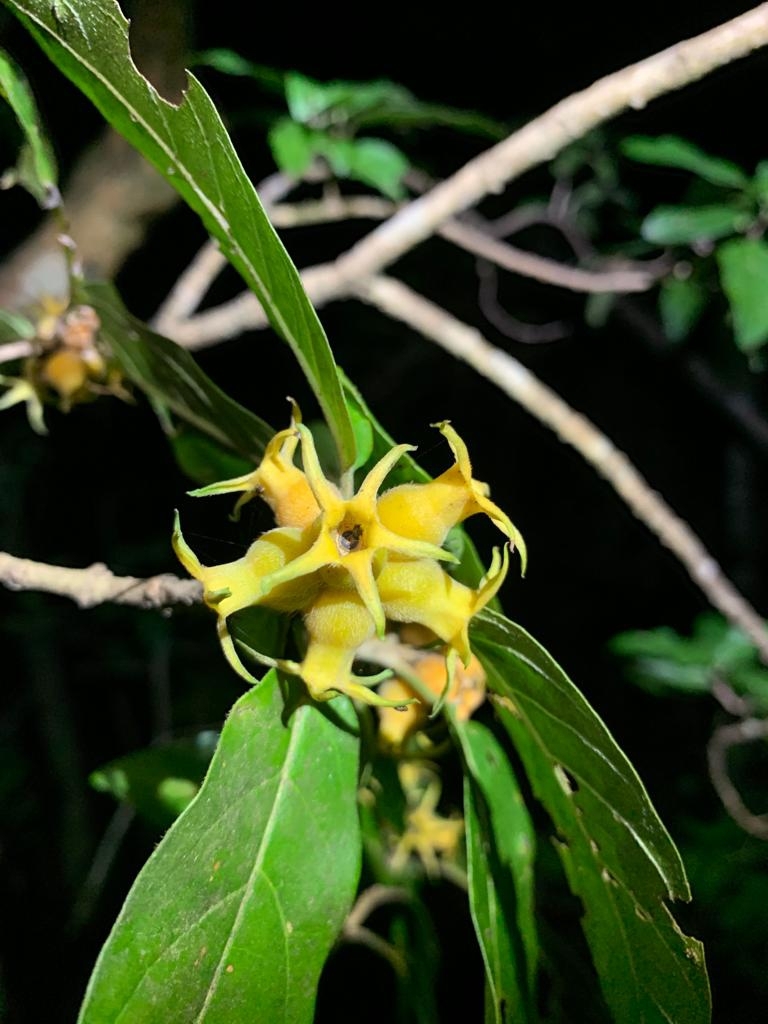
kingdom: Plantae
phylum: Tracheophyta
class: Magnoliopsida
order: Gentianales
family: Rubiaceae
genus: Burchellia
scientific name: Burchellia bubalina
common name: Wild pomegranate
